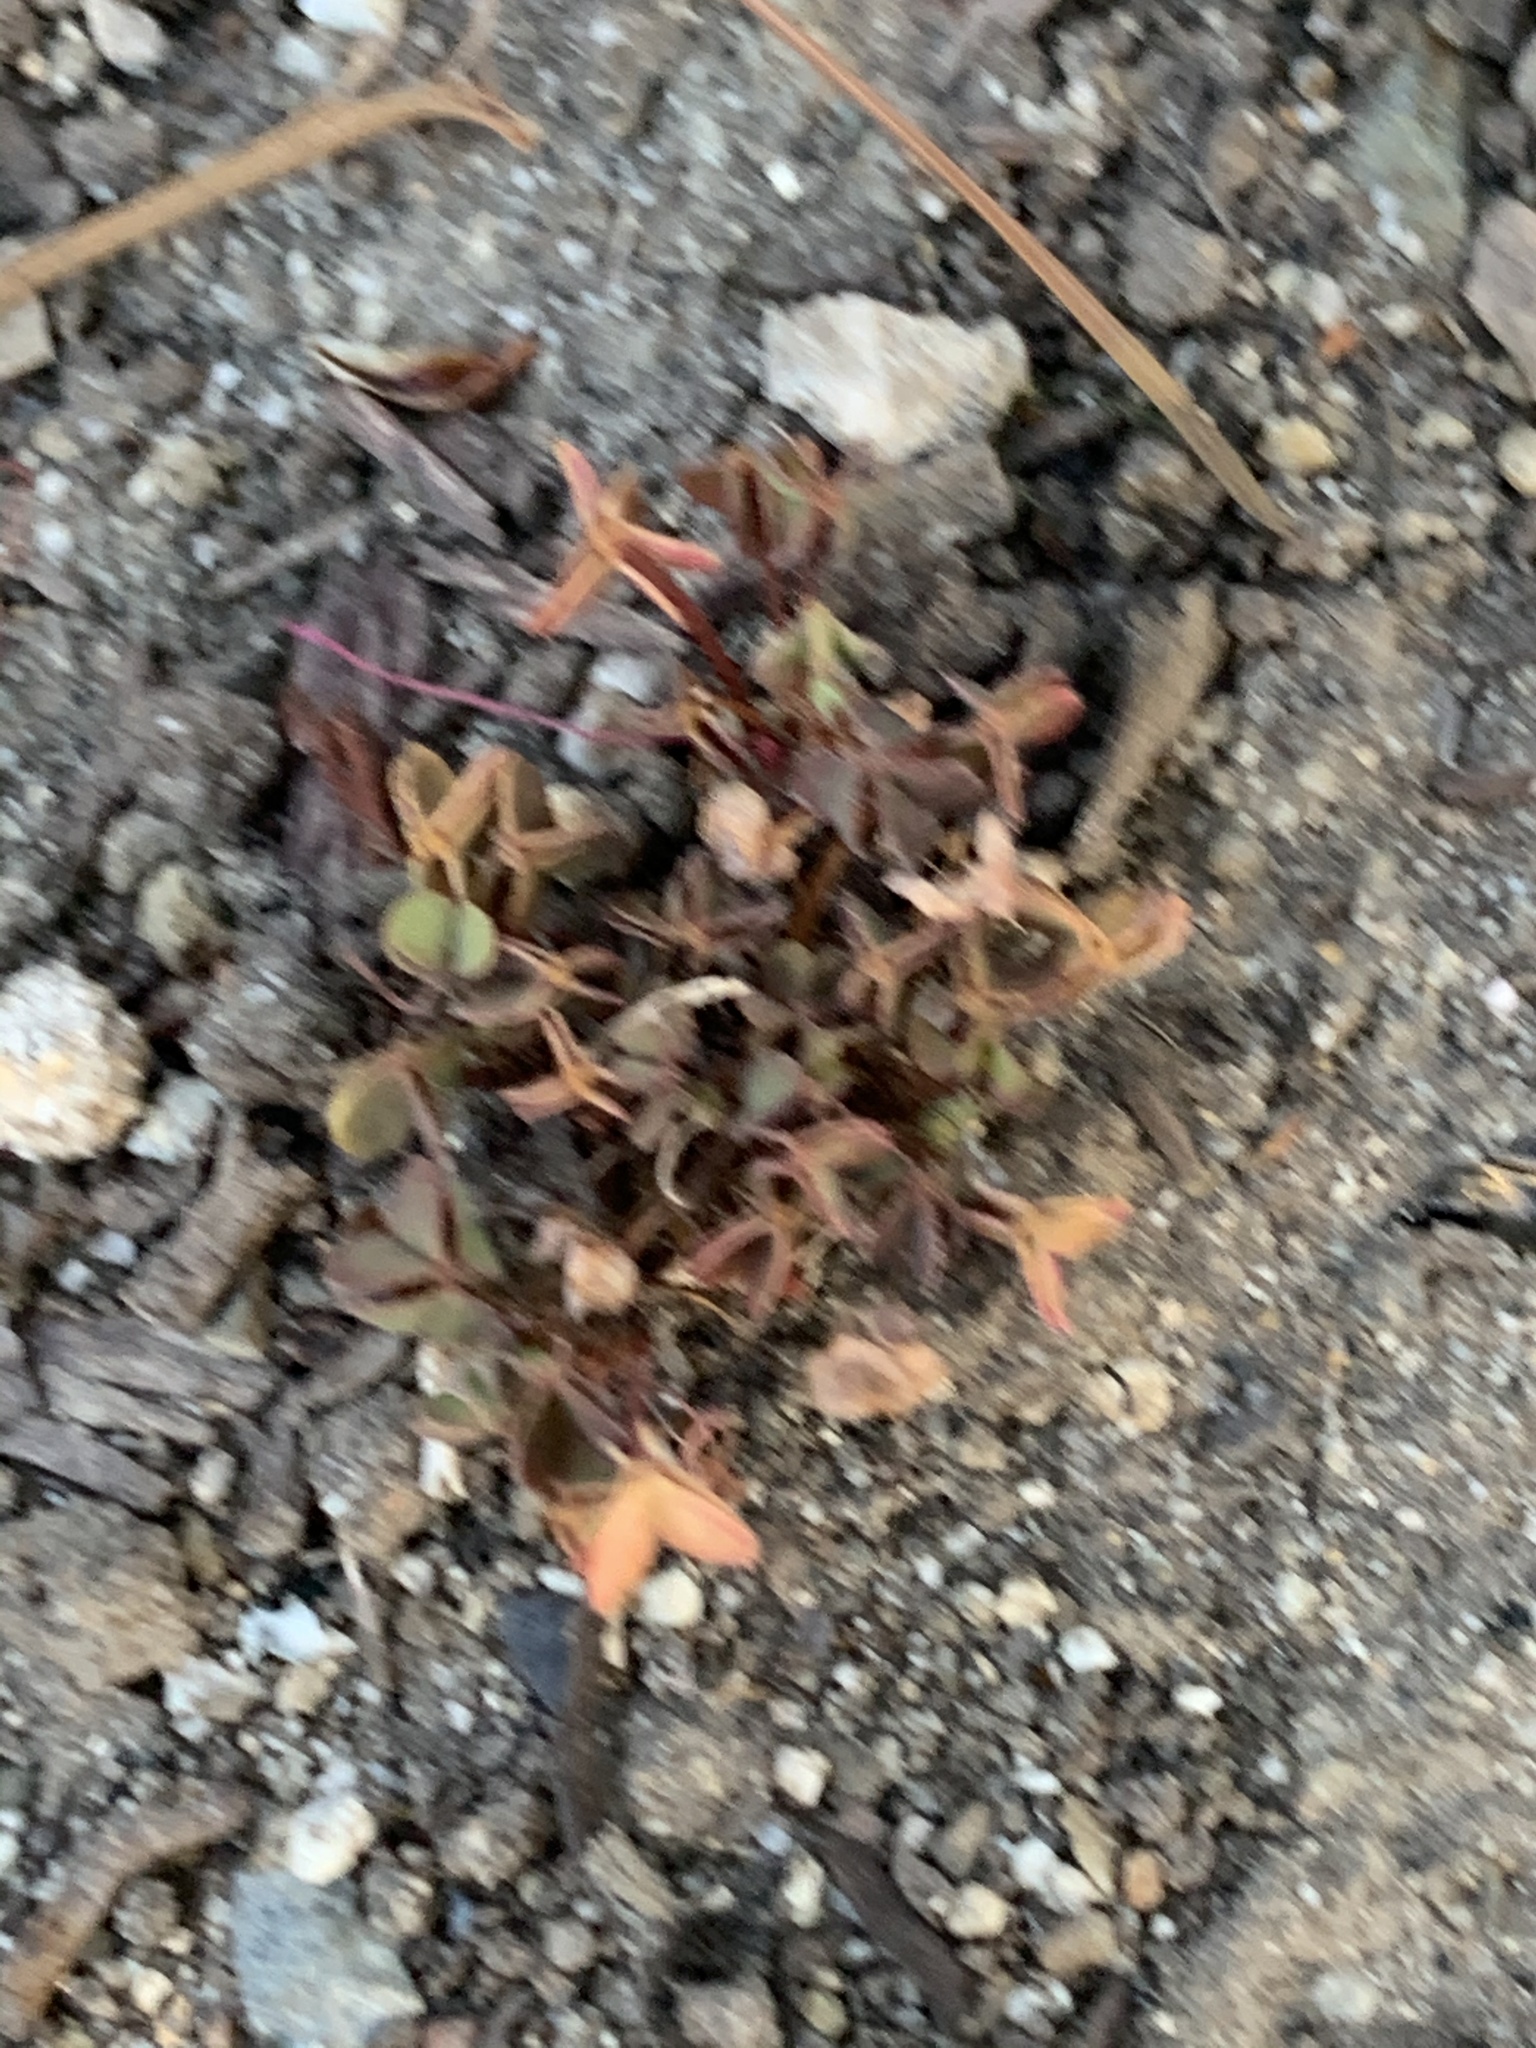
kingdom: Plantae
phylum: Tracheophyta
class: Magnoliopsida
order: Oxalidales
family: Oxalidaceae
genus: Oxalis
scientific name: Oxalis corniculata
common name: Procumbent yellow-sorrel
